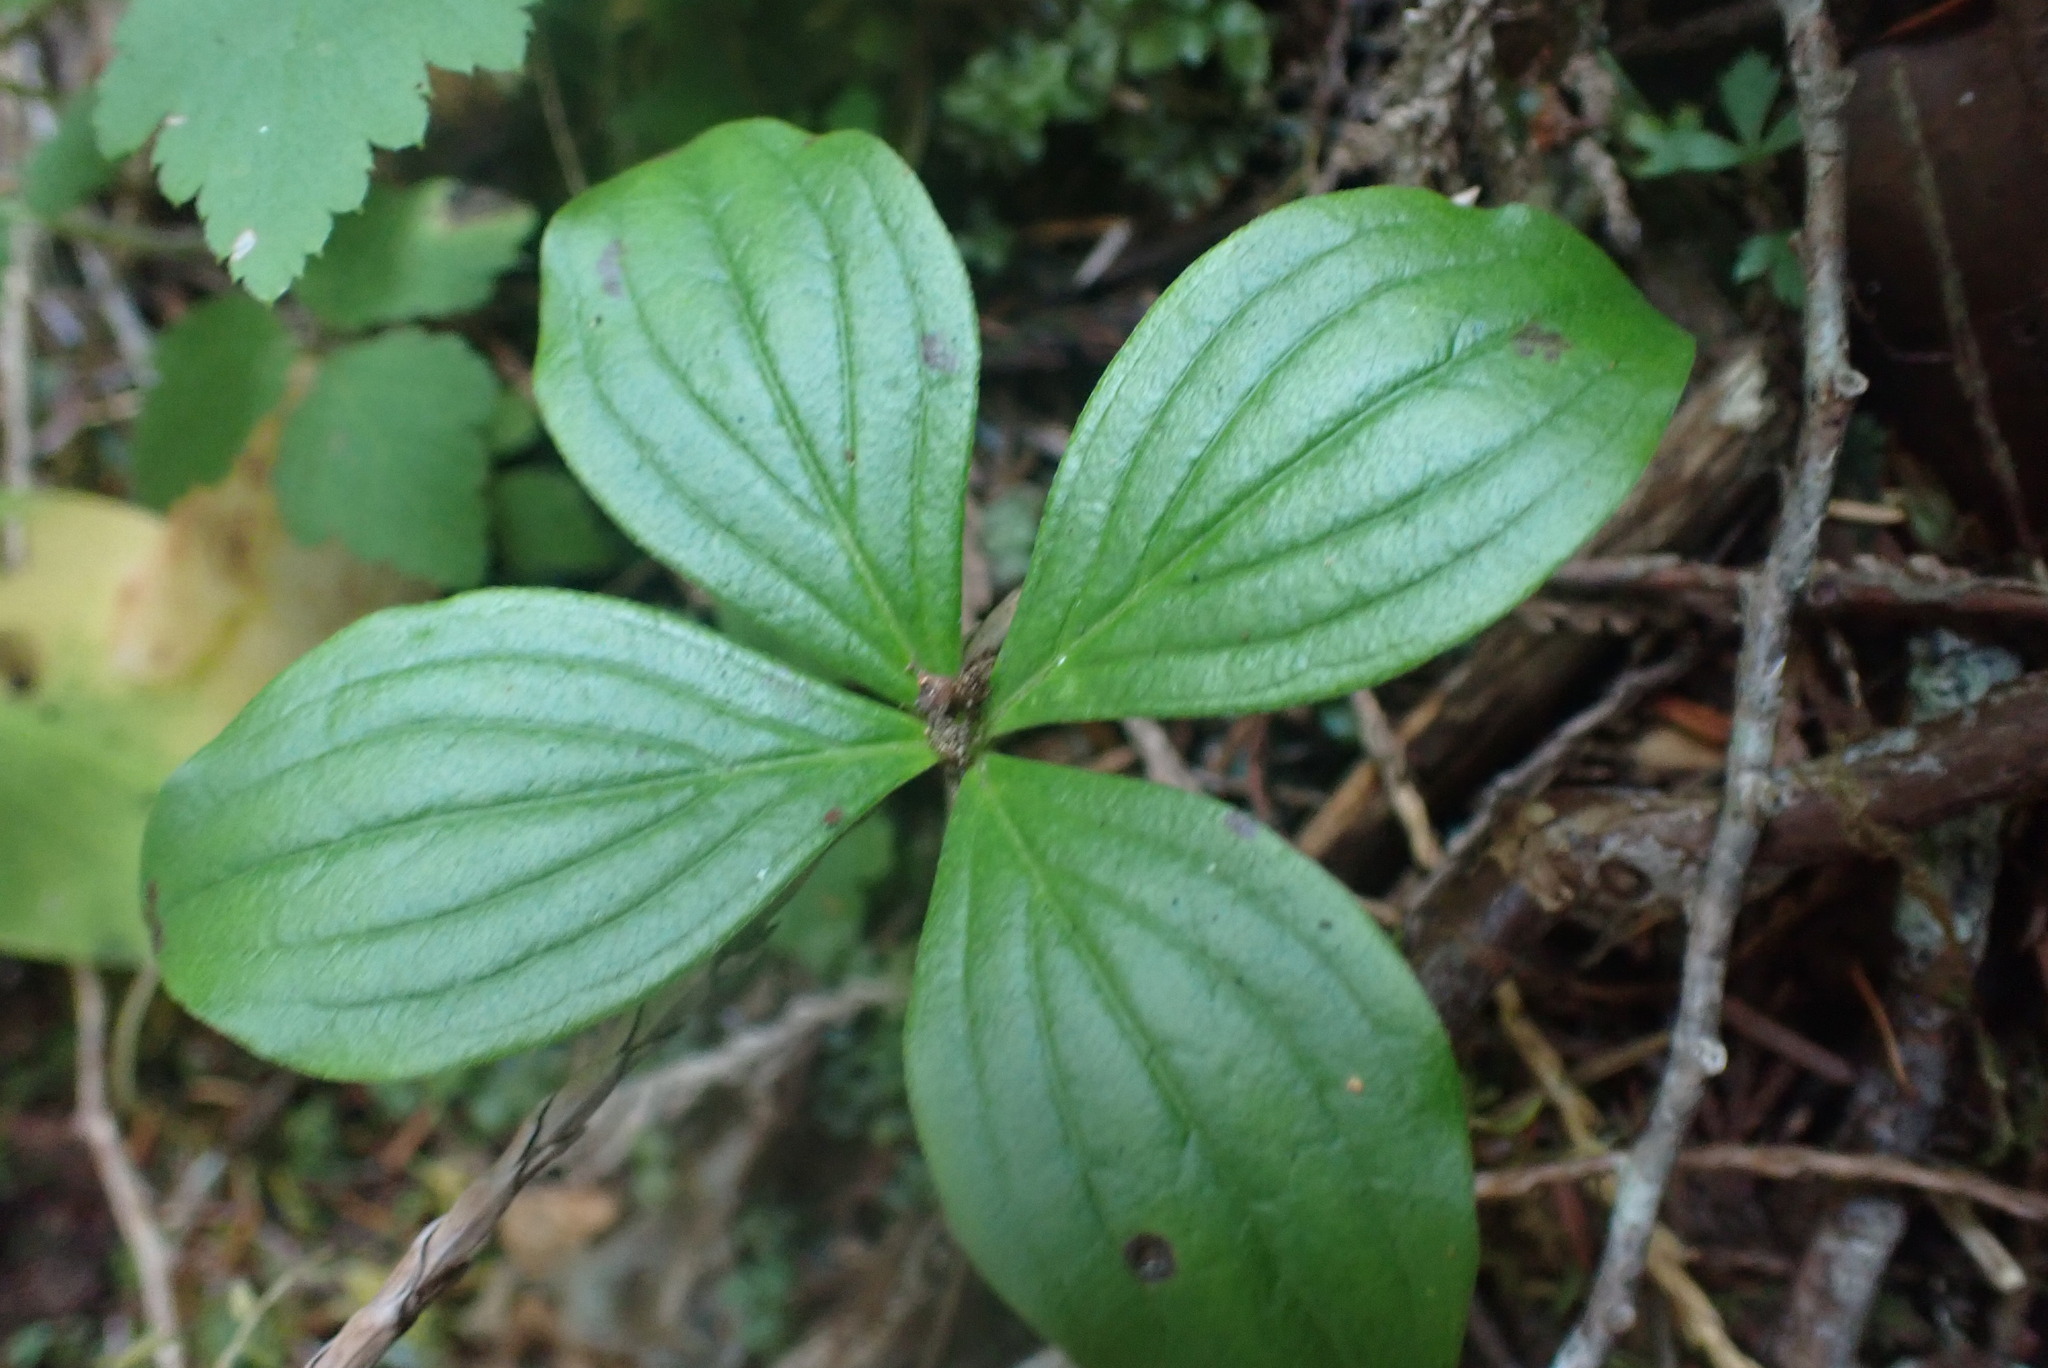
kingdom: Plantae
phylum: Tracheophyta
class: Magnoliopsida
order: Cornales
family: Cornaceae
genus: Cornus
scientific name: Cornus unalaschkensis
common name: Alaska bunchberry
